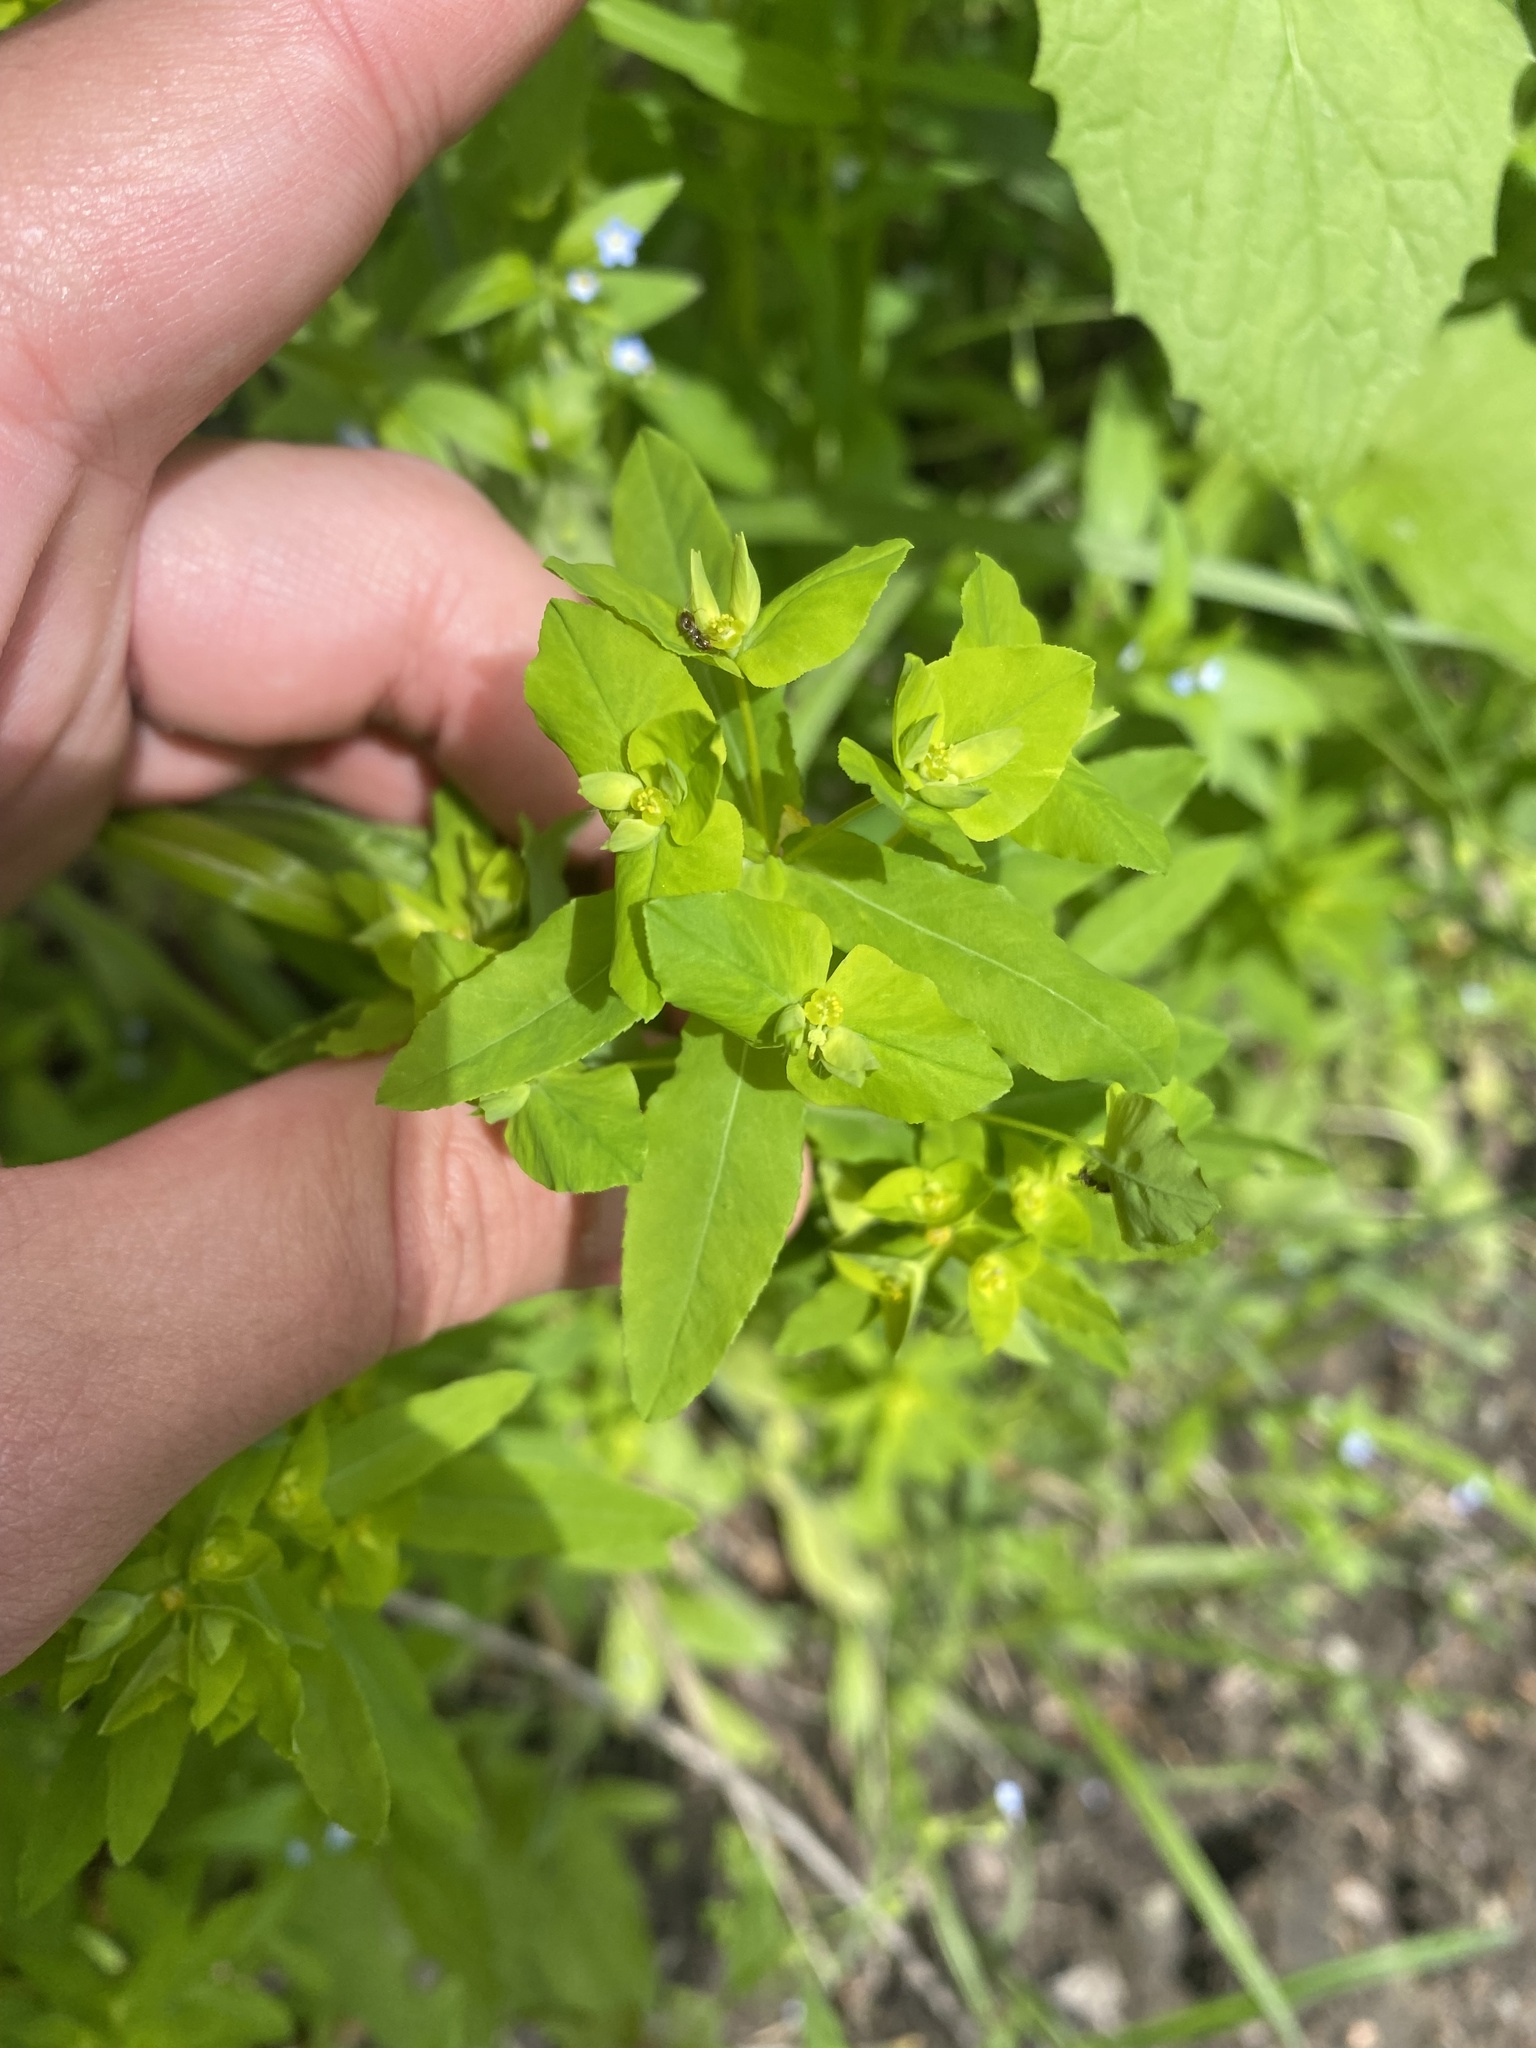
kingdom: Plantae
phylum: Tracheophyta
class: Magnoliopsida
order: Malpighiales
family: Euphorbiaceae
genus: Euphorbia
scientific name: Euphorbia stricta
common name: Upright spurge
